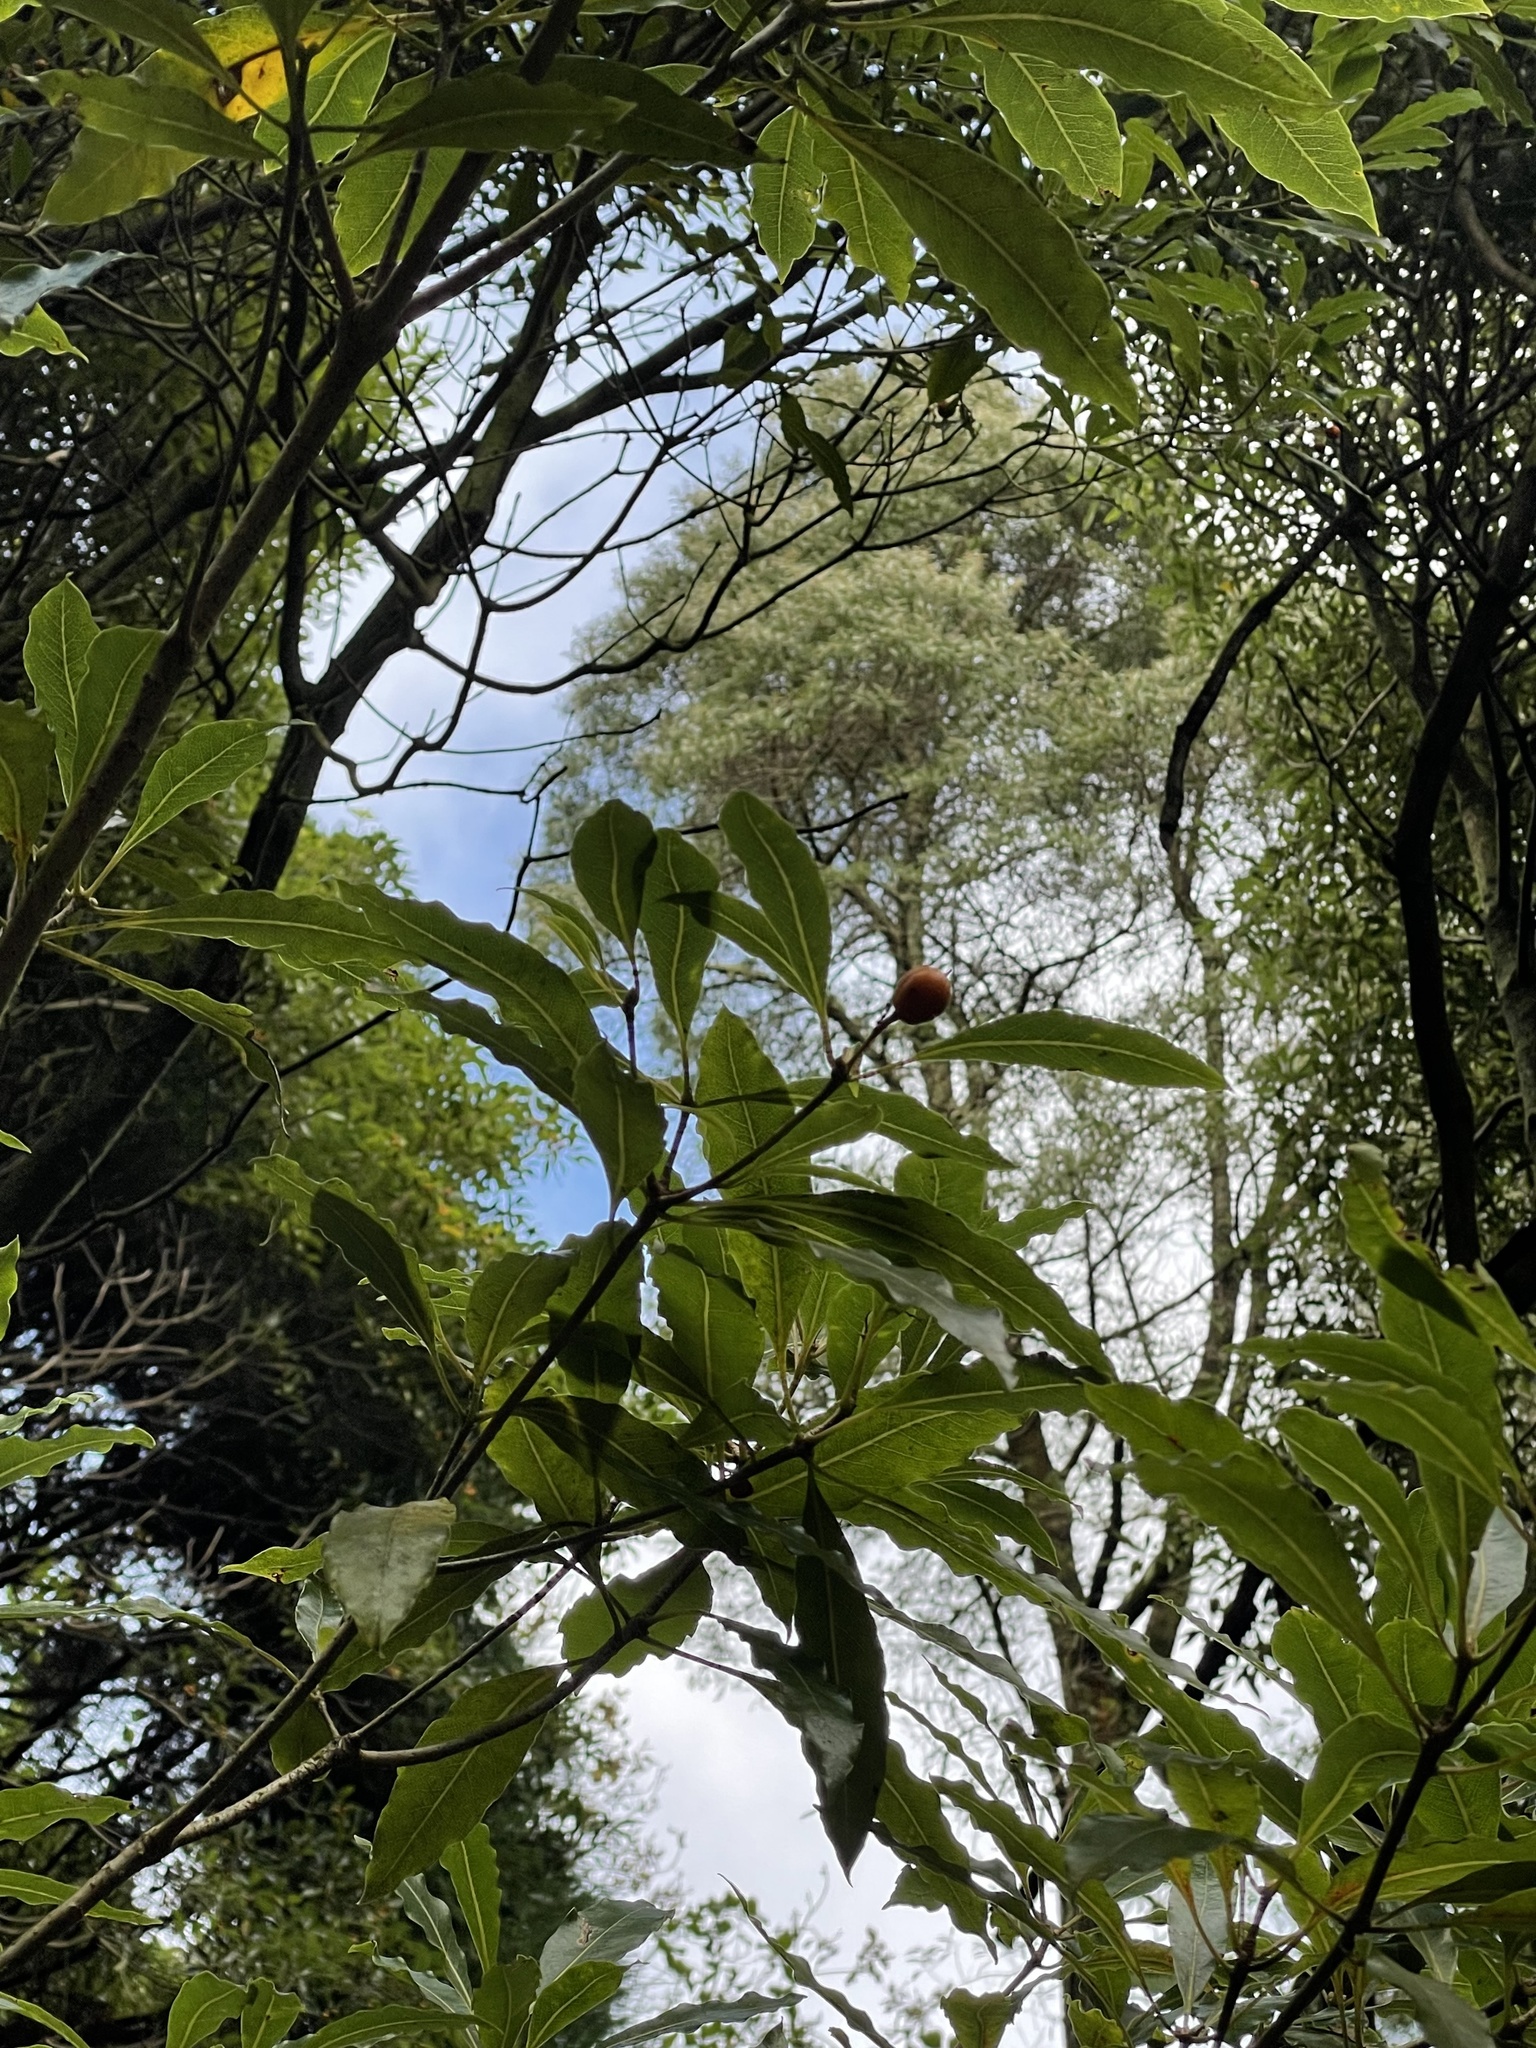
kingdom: Plantae
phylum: Tracheophyta
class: Magnoliopsida
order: Apiales
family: Pittosporaceae
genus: Pittosporum
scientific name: Pittosporum undulatum
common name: Australian cheesewood
